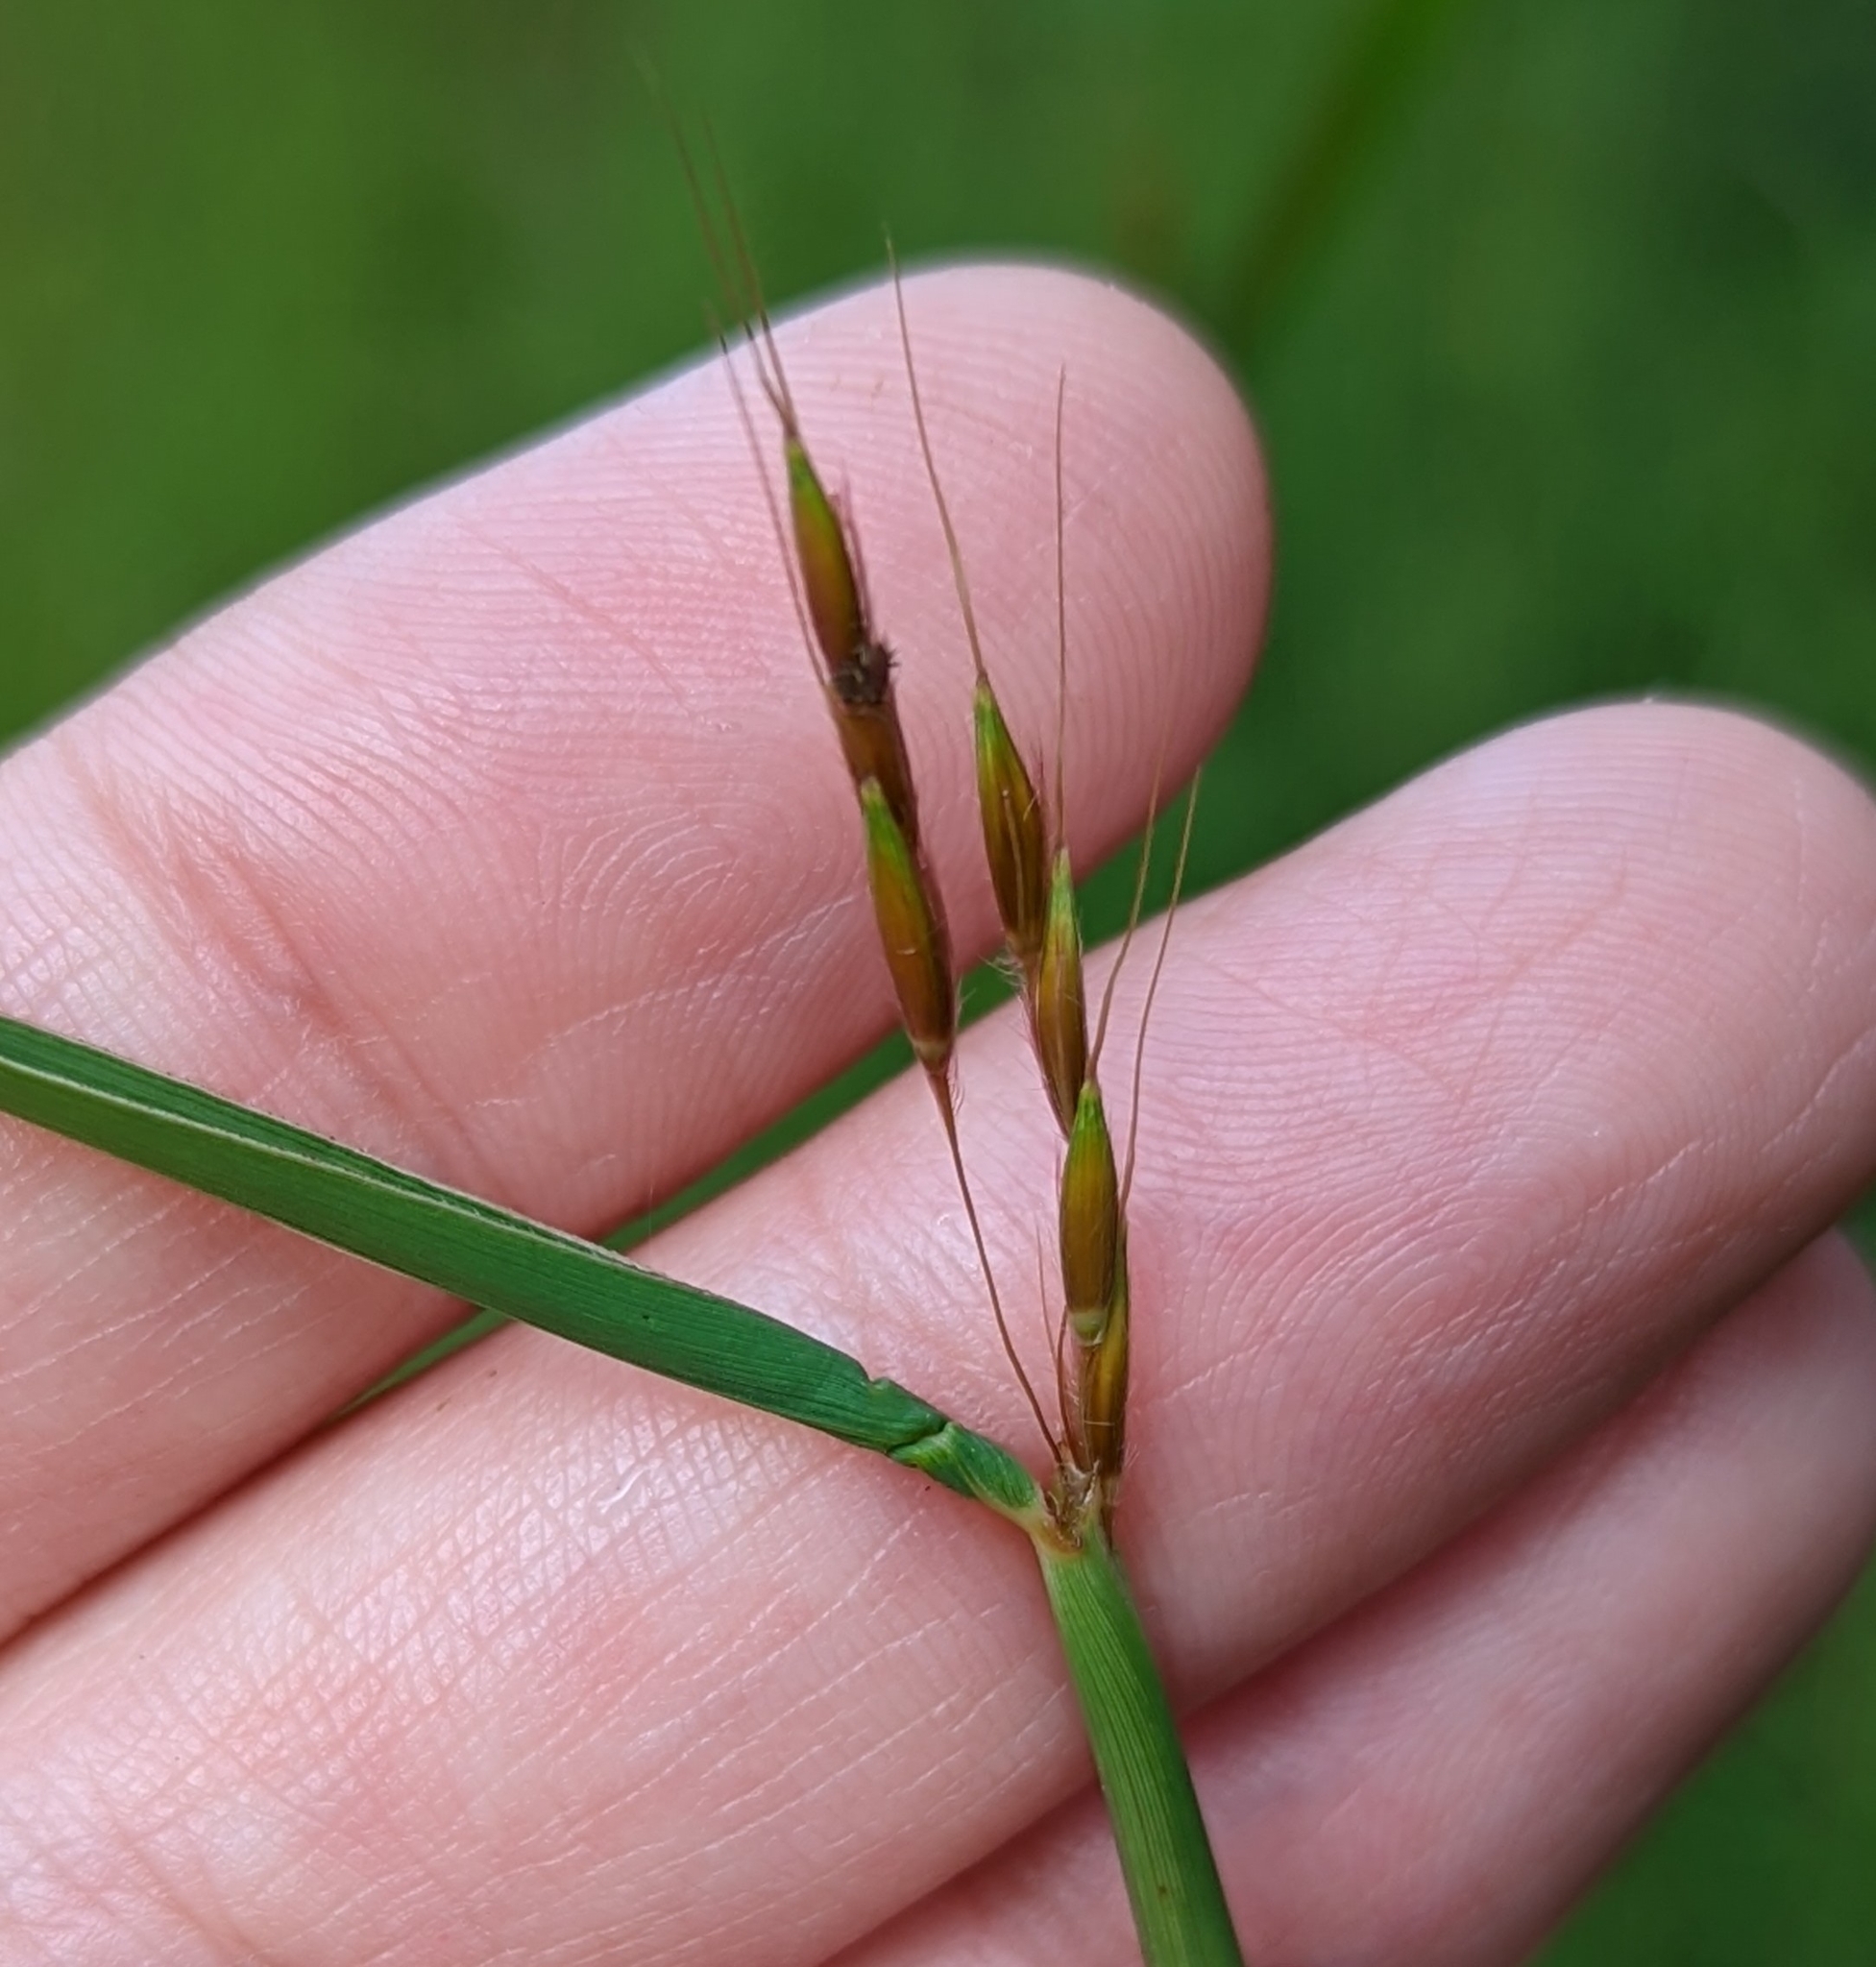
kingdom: Plantae
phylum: Tracheophyta
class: Liliopsida
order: Poales
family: Poaceae
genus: Sorghastrum
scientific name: Sorghastrum nutans
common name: Indian grass
